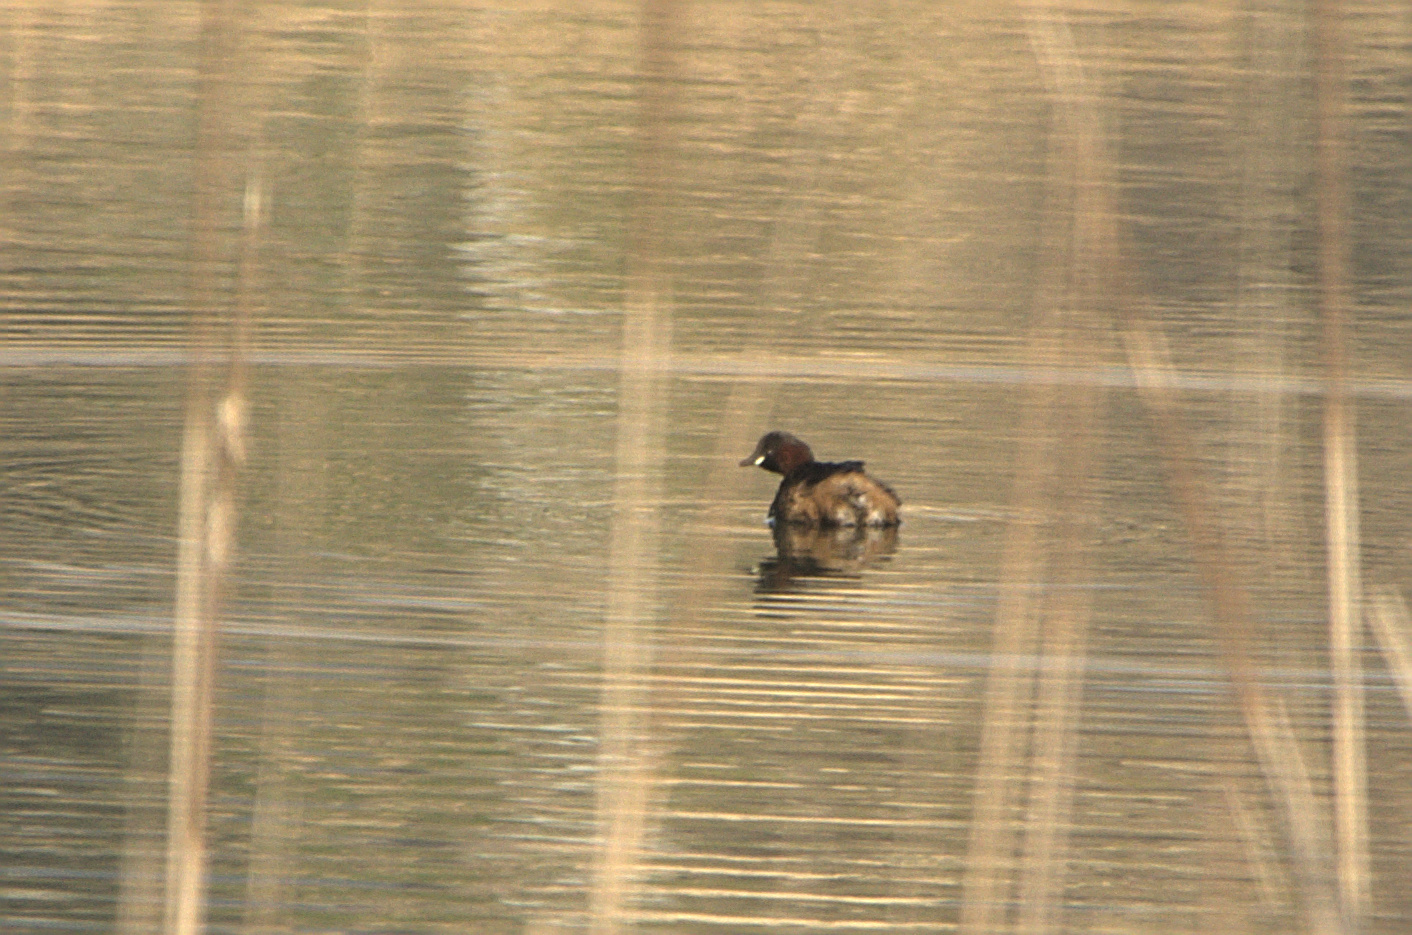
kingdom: Animalia
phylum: Chordata
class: Aves
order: Podicipediformes
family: Podicipedidae
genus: Tachybaptus
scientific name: Tachybaptus ruficollis
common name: Little grebe
